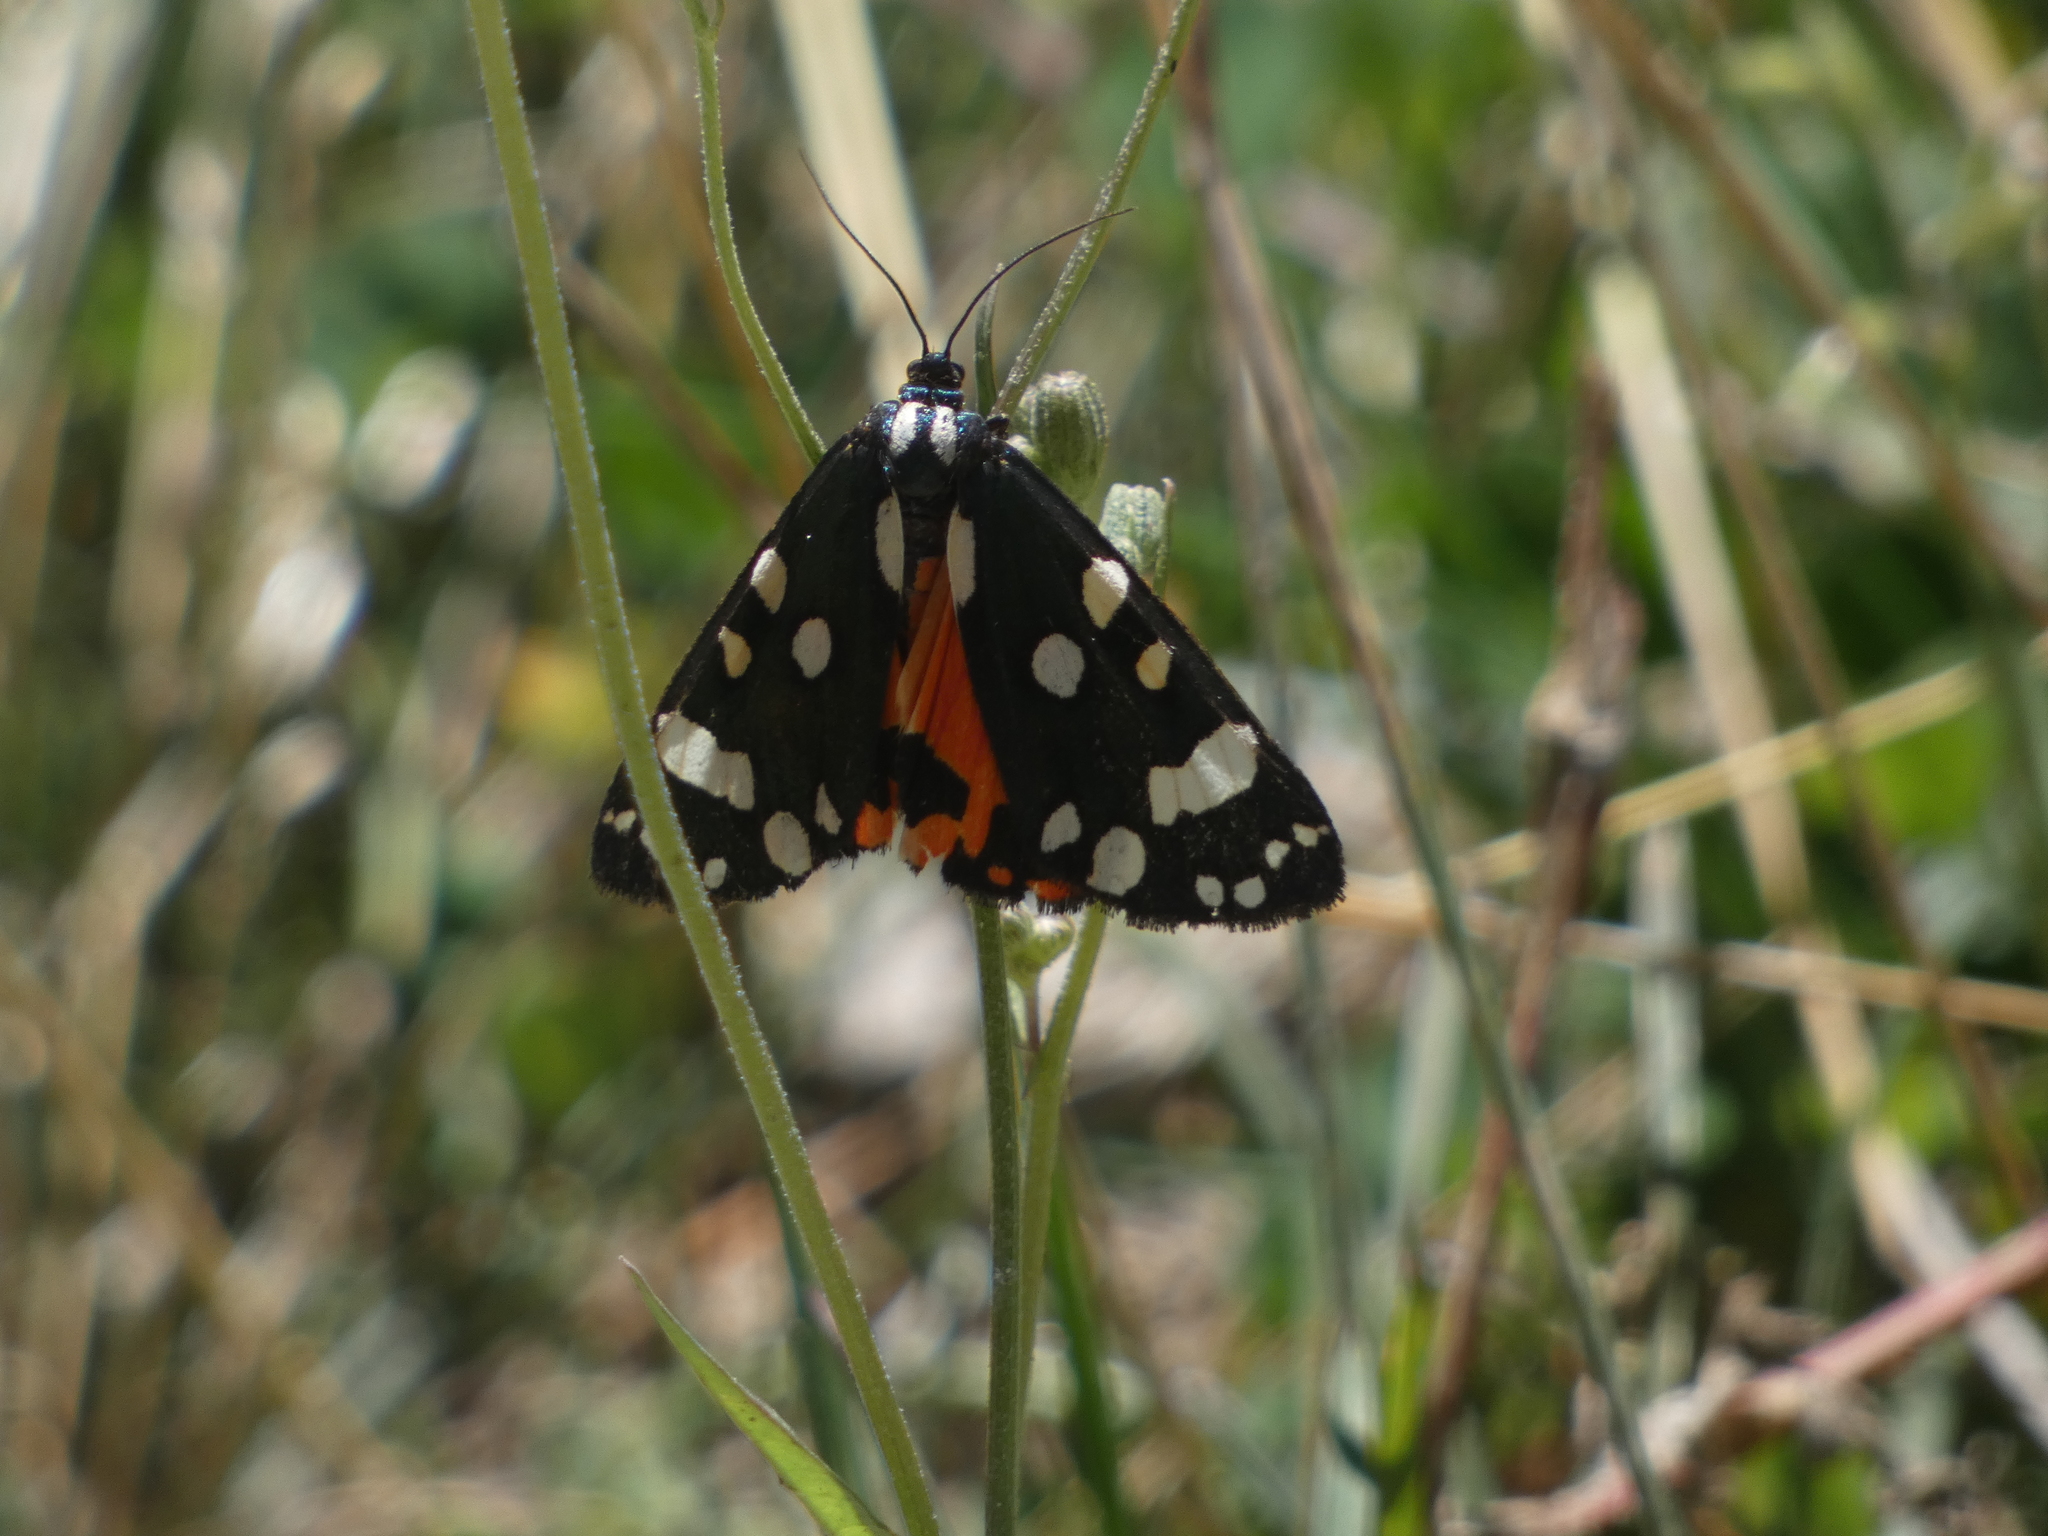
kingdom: Animalia
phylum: Arthropoda
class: Insecta
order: Lepidoptera
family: Erebidae
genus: Callimorpha
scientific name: Callimorpha dominula
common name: Scarlet tiger
